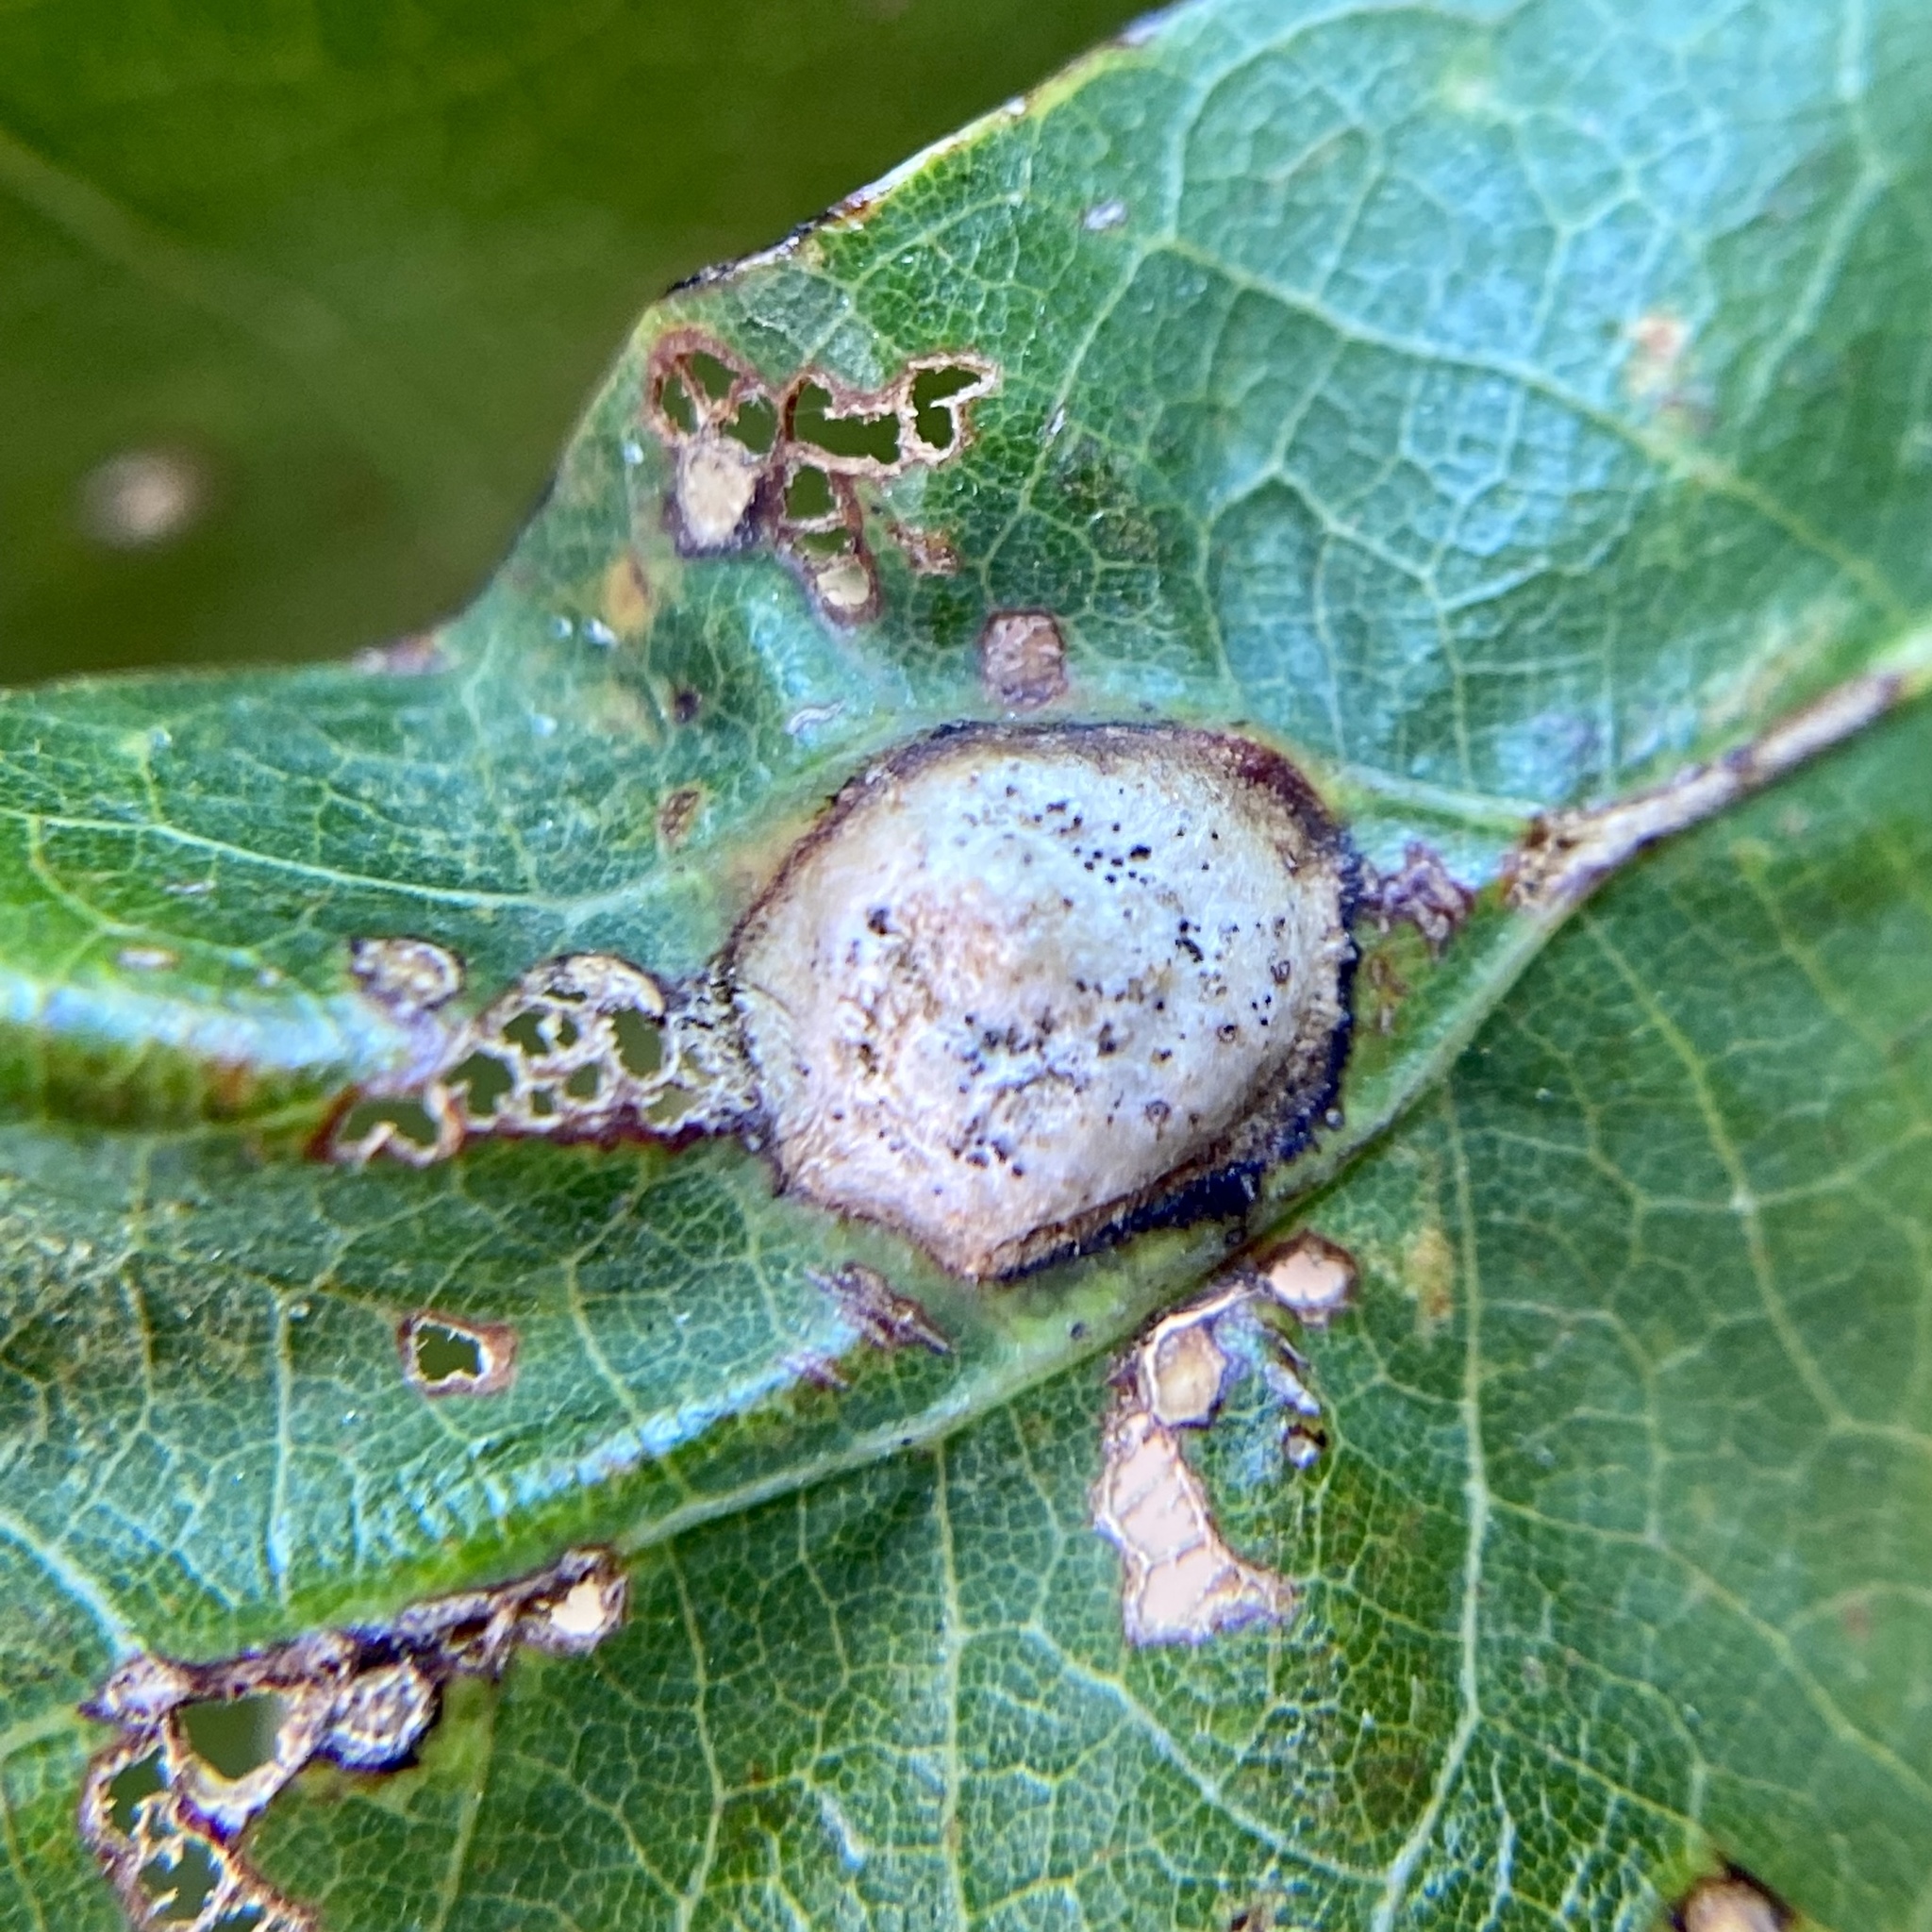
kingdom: Animalia
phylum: Arthropoda
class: Insecta
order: Hymenoptera
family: Cynipidae
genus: Callirhytis
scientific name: Callirhytis
